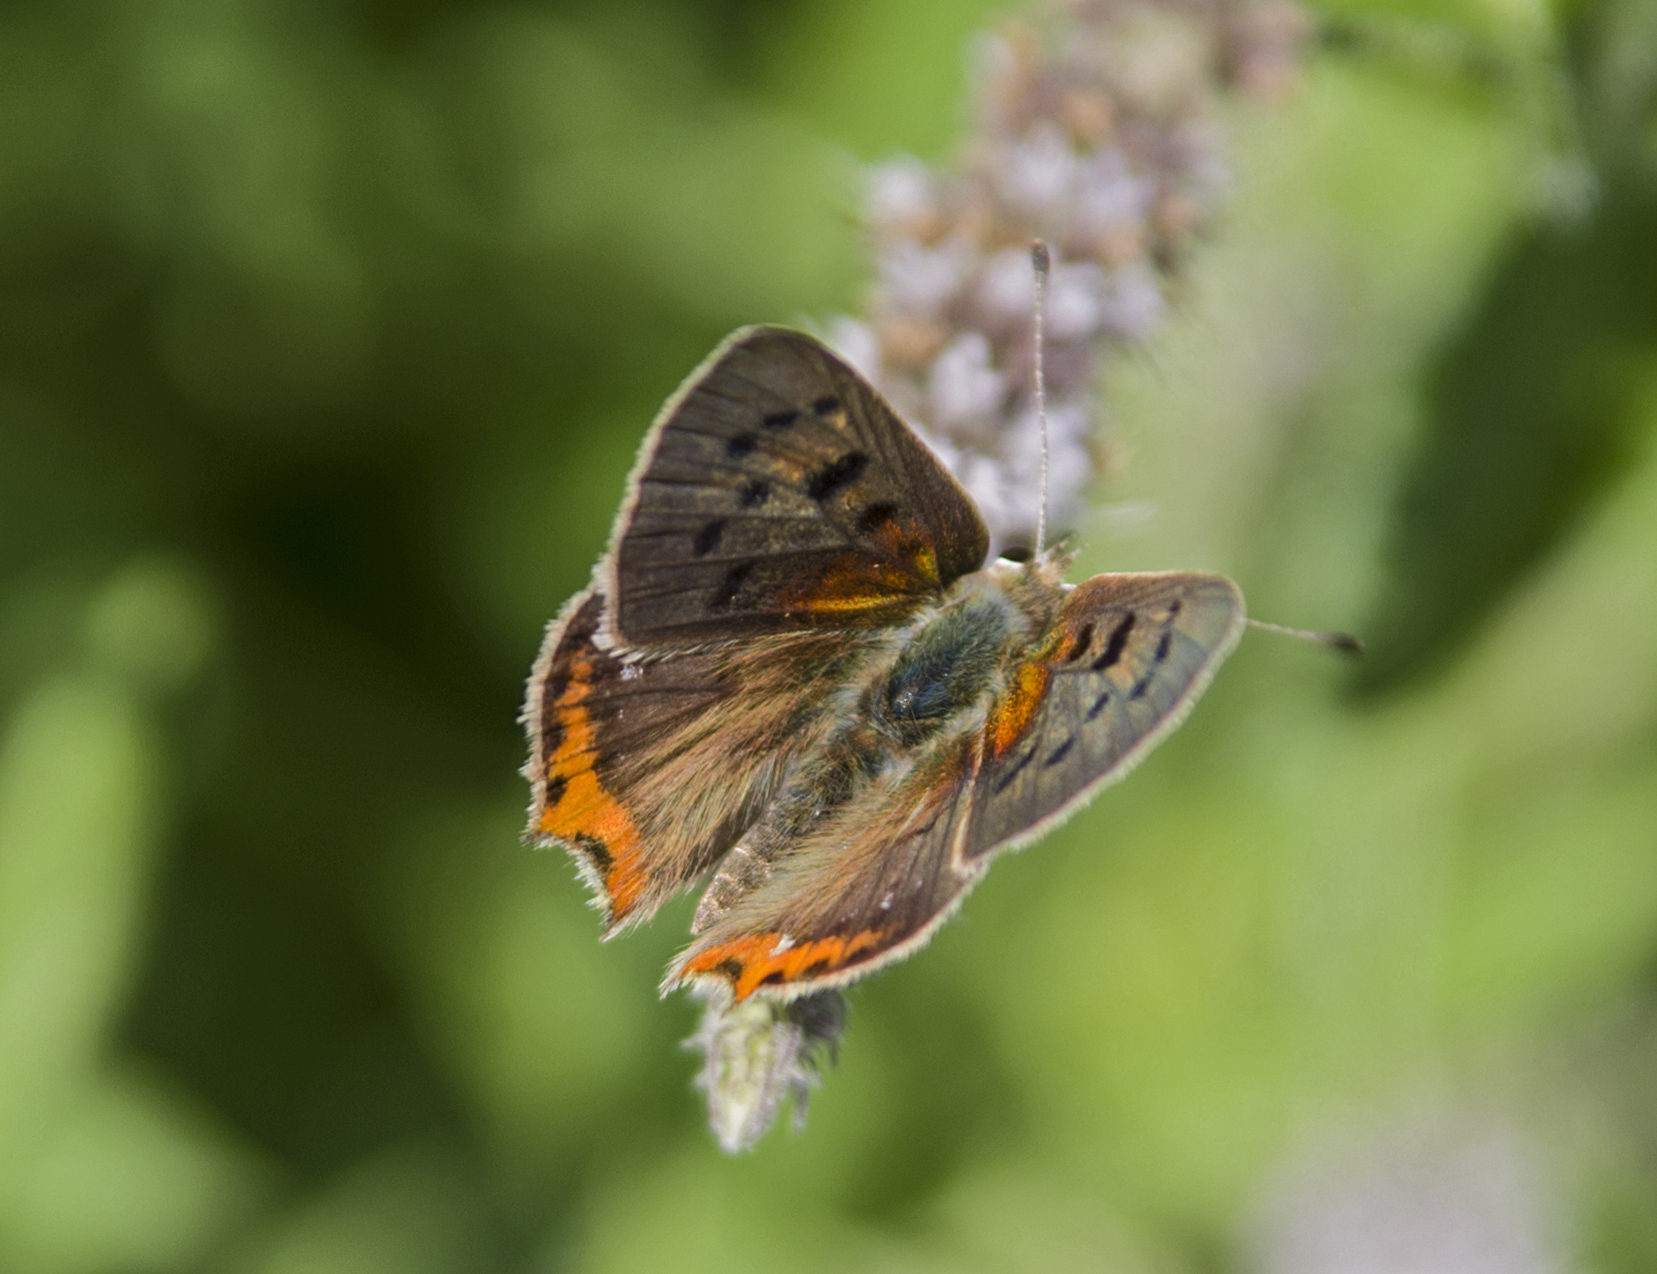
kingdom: Animalia
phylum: Arthropoda
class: Insecta
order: Lepidoptera
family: Lycaenidae
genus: Lycaena
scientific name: Lycaena phlaeas
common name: Small copper
